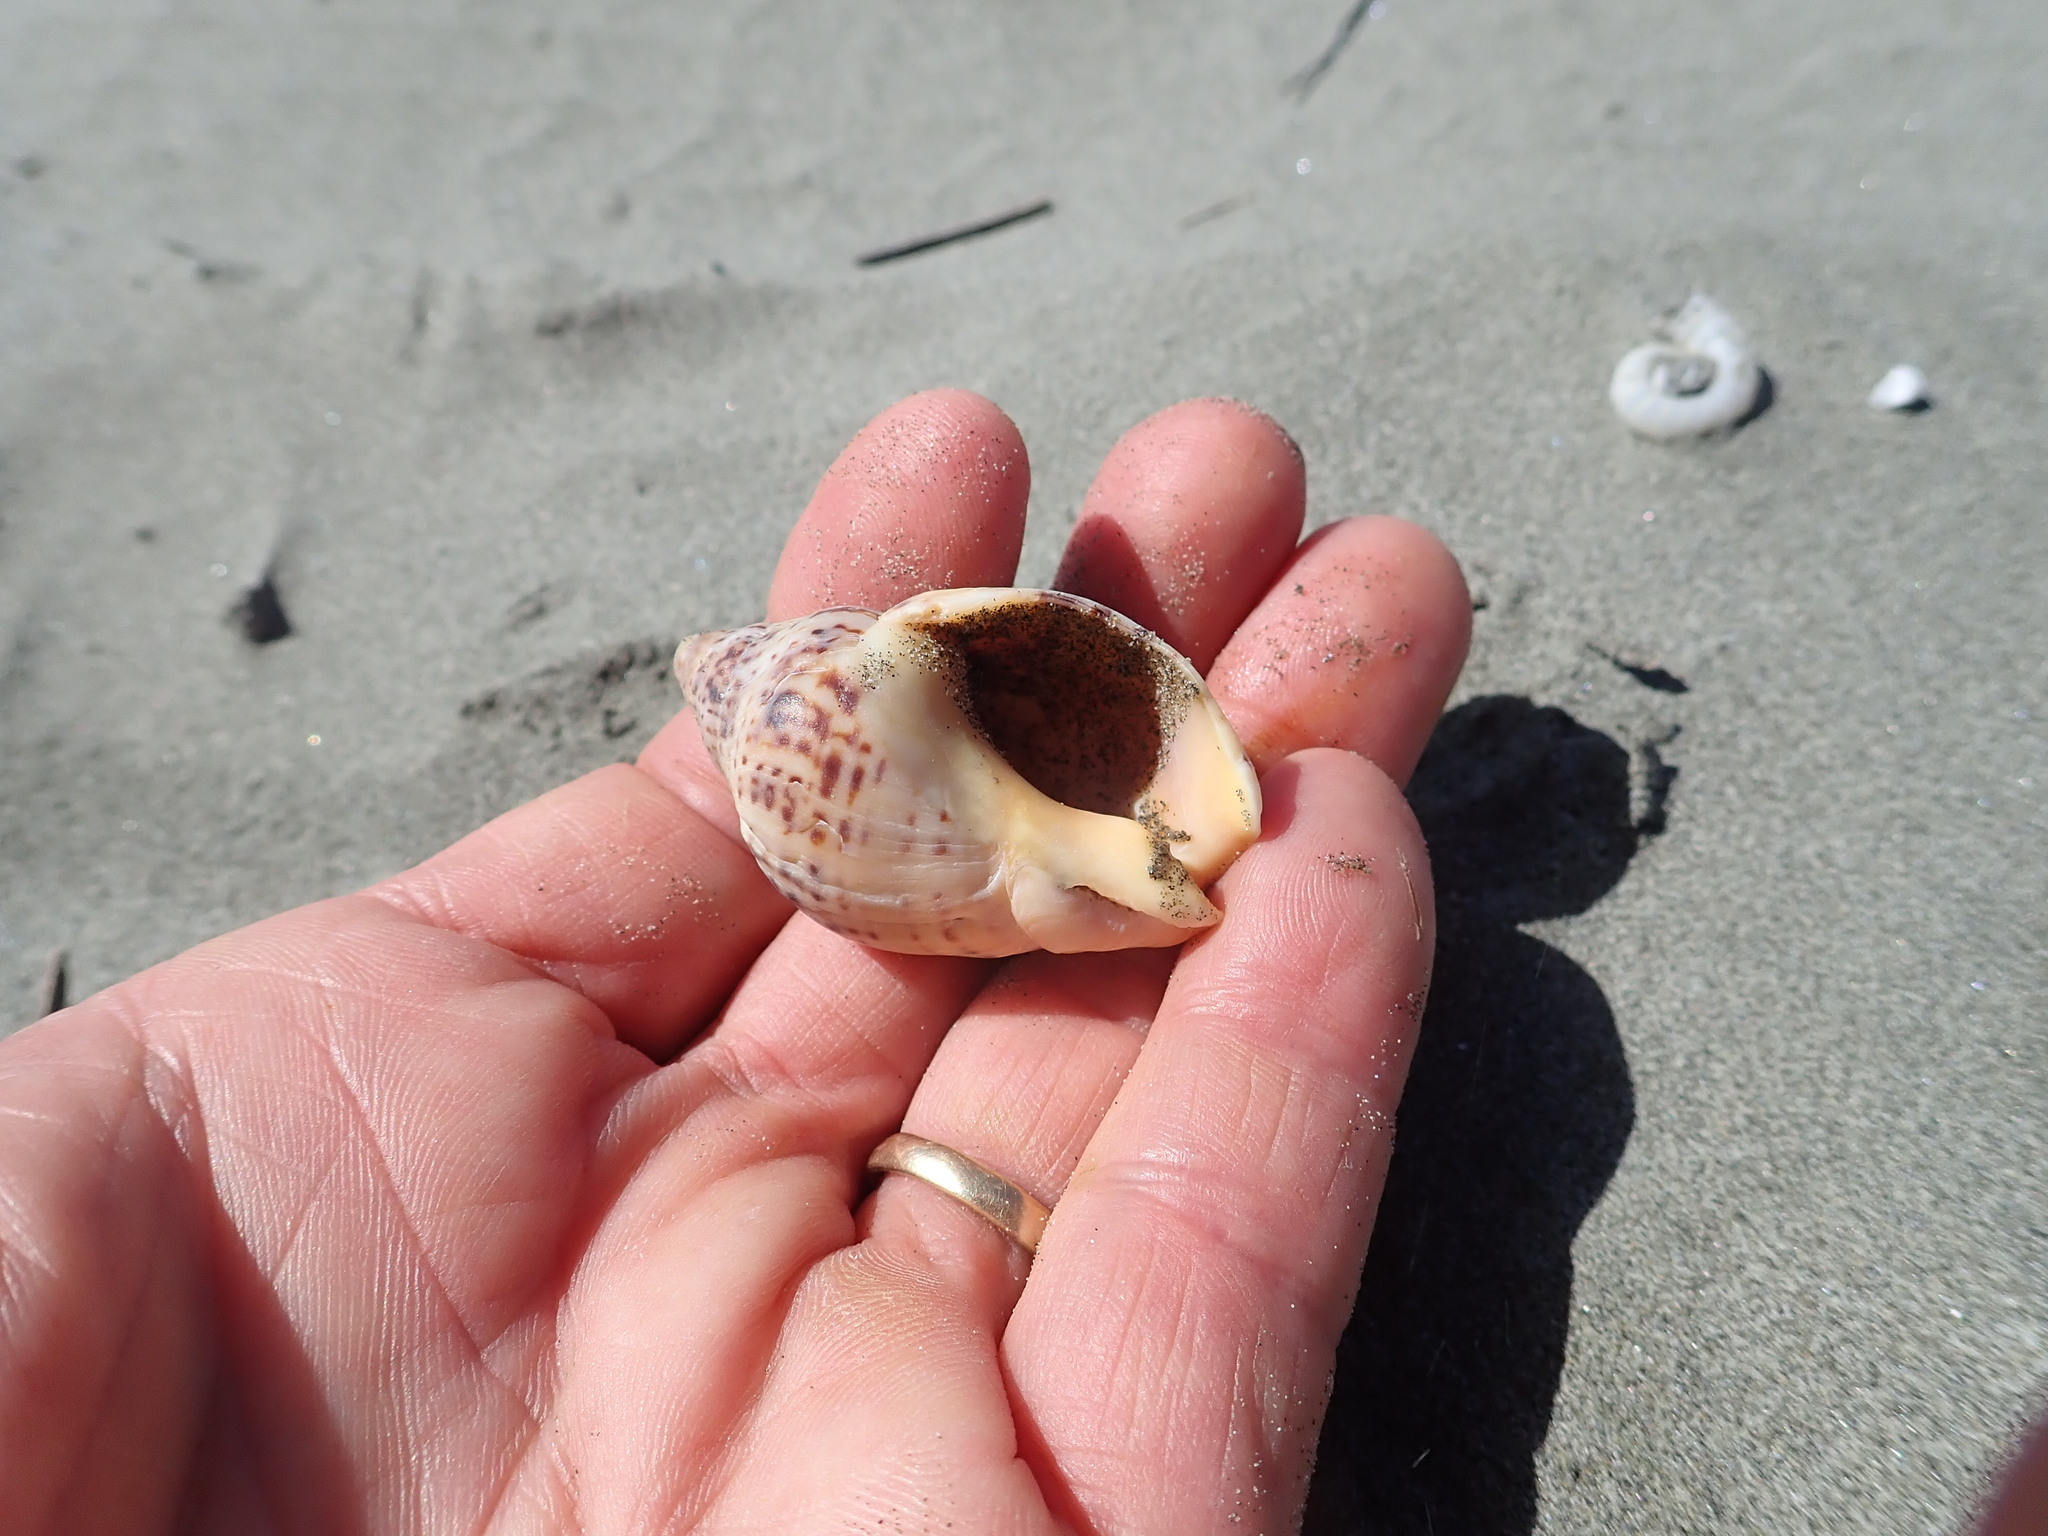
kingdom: Animalia
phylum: Mollusca
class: Gastropoda
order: Neogastropoda
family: Cominellidae
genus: Cominella
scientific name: Cominella adspersa
